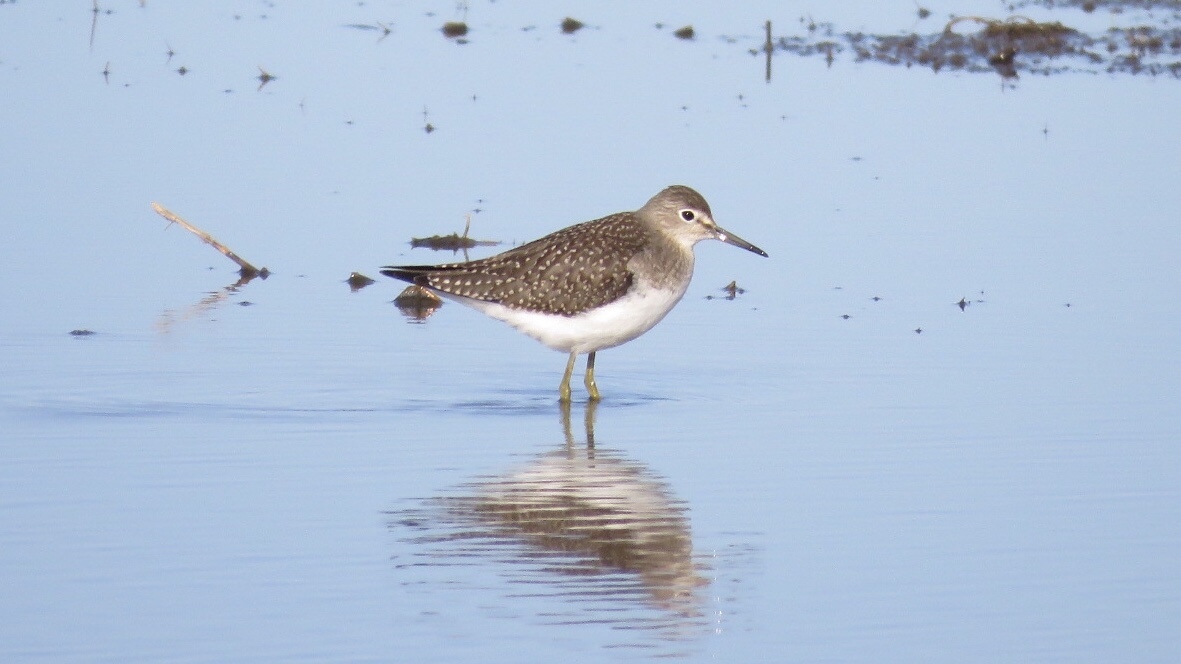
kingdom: Animalia
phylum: Chordata
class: Aves
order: Charadriiformes
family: Scolopacidae
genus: Tringa
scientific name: Tringa solitaria
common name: Solitary sandpiper
